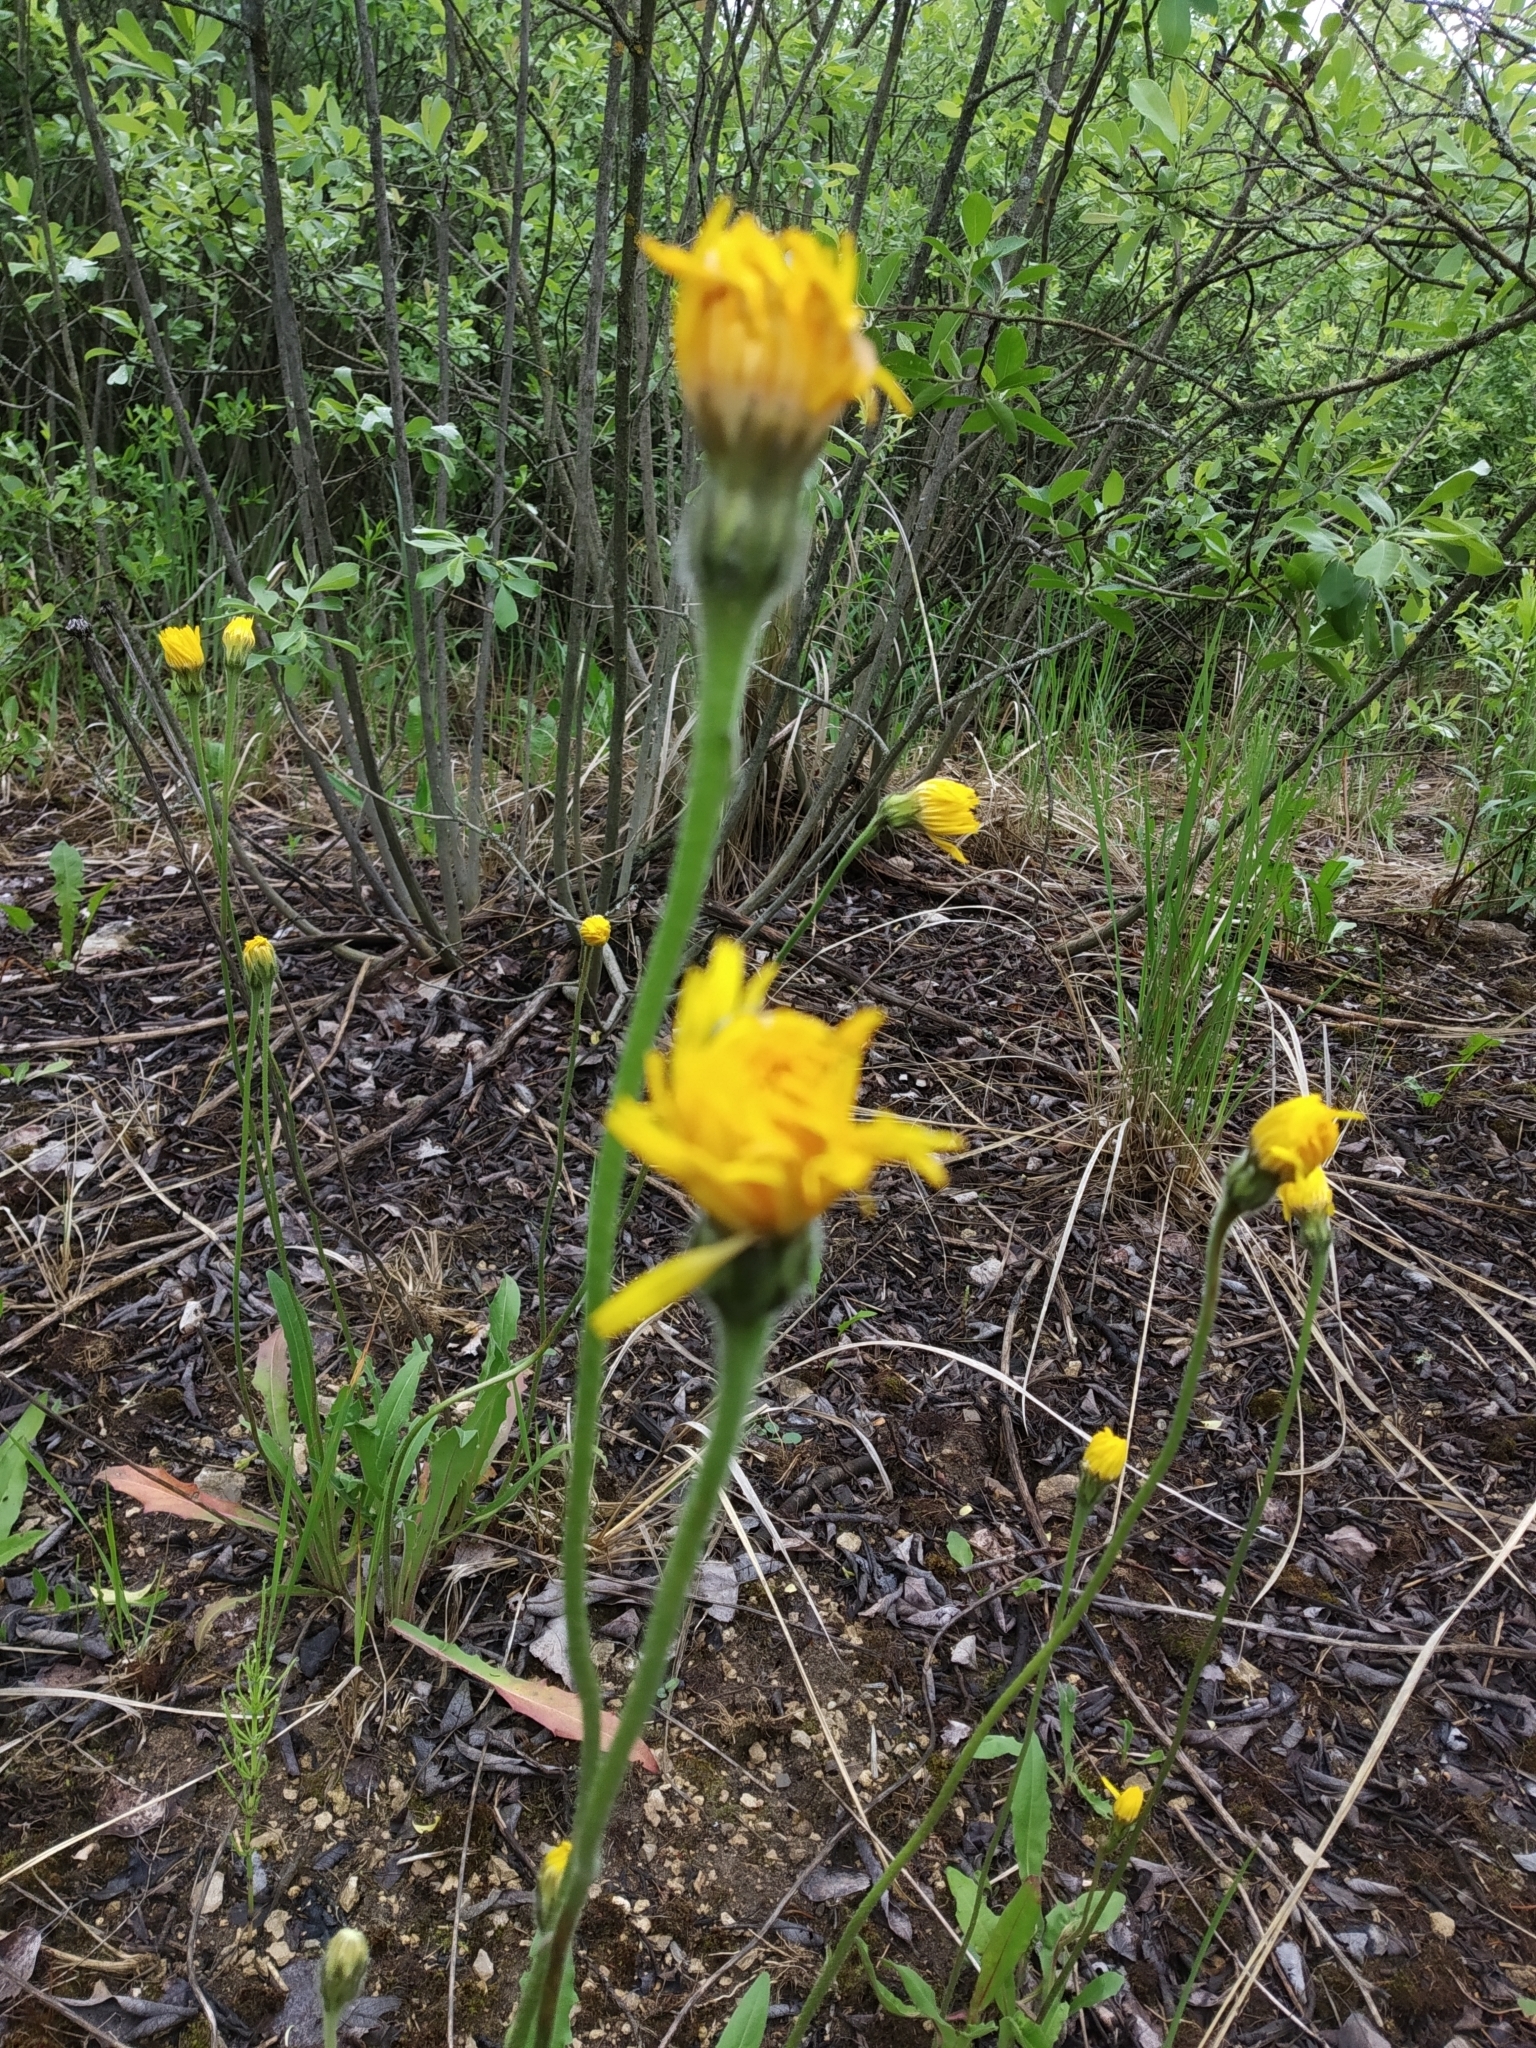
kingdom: Plantae
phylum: Tracheophyta
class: Magnoliopsida
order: Asterales
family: Asteraceae
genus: Leontodon
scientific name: Leontodon hispidus
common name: Rough hawkbit
